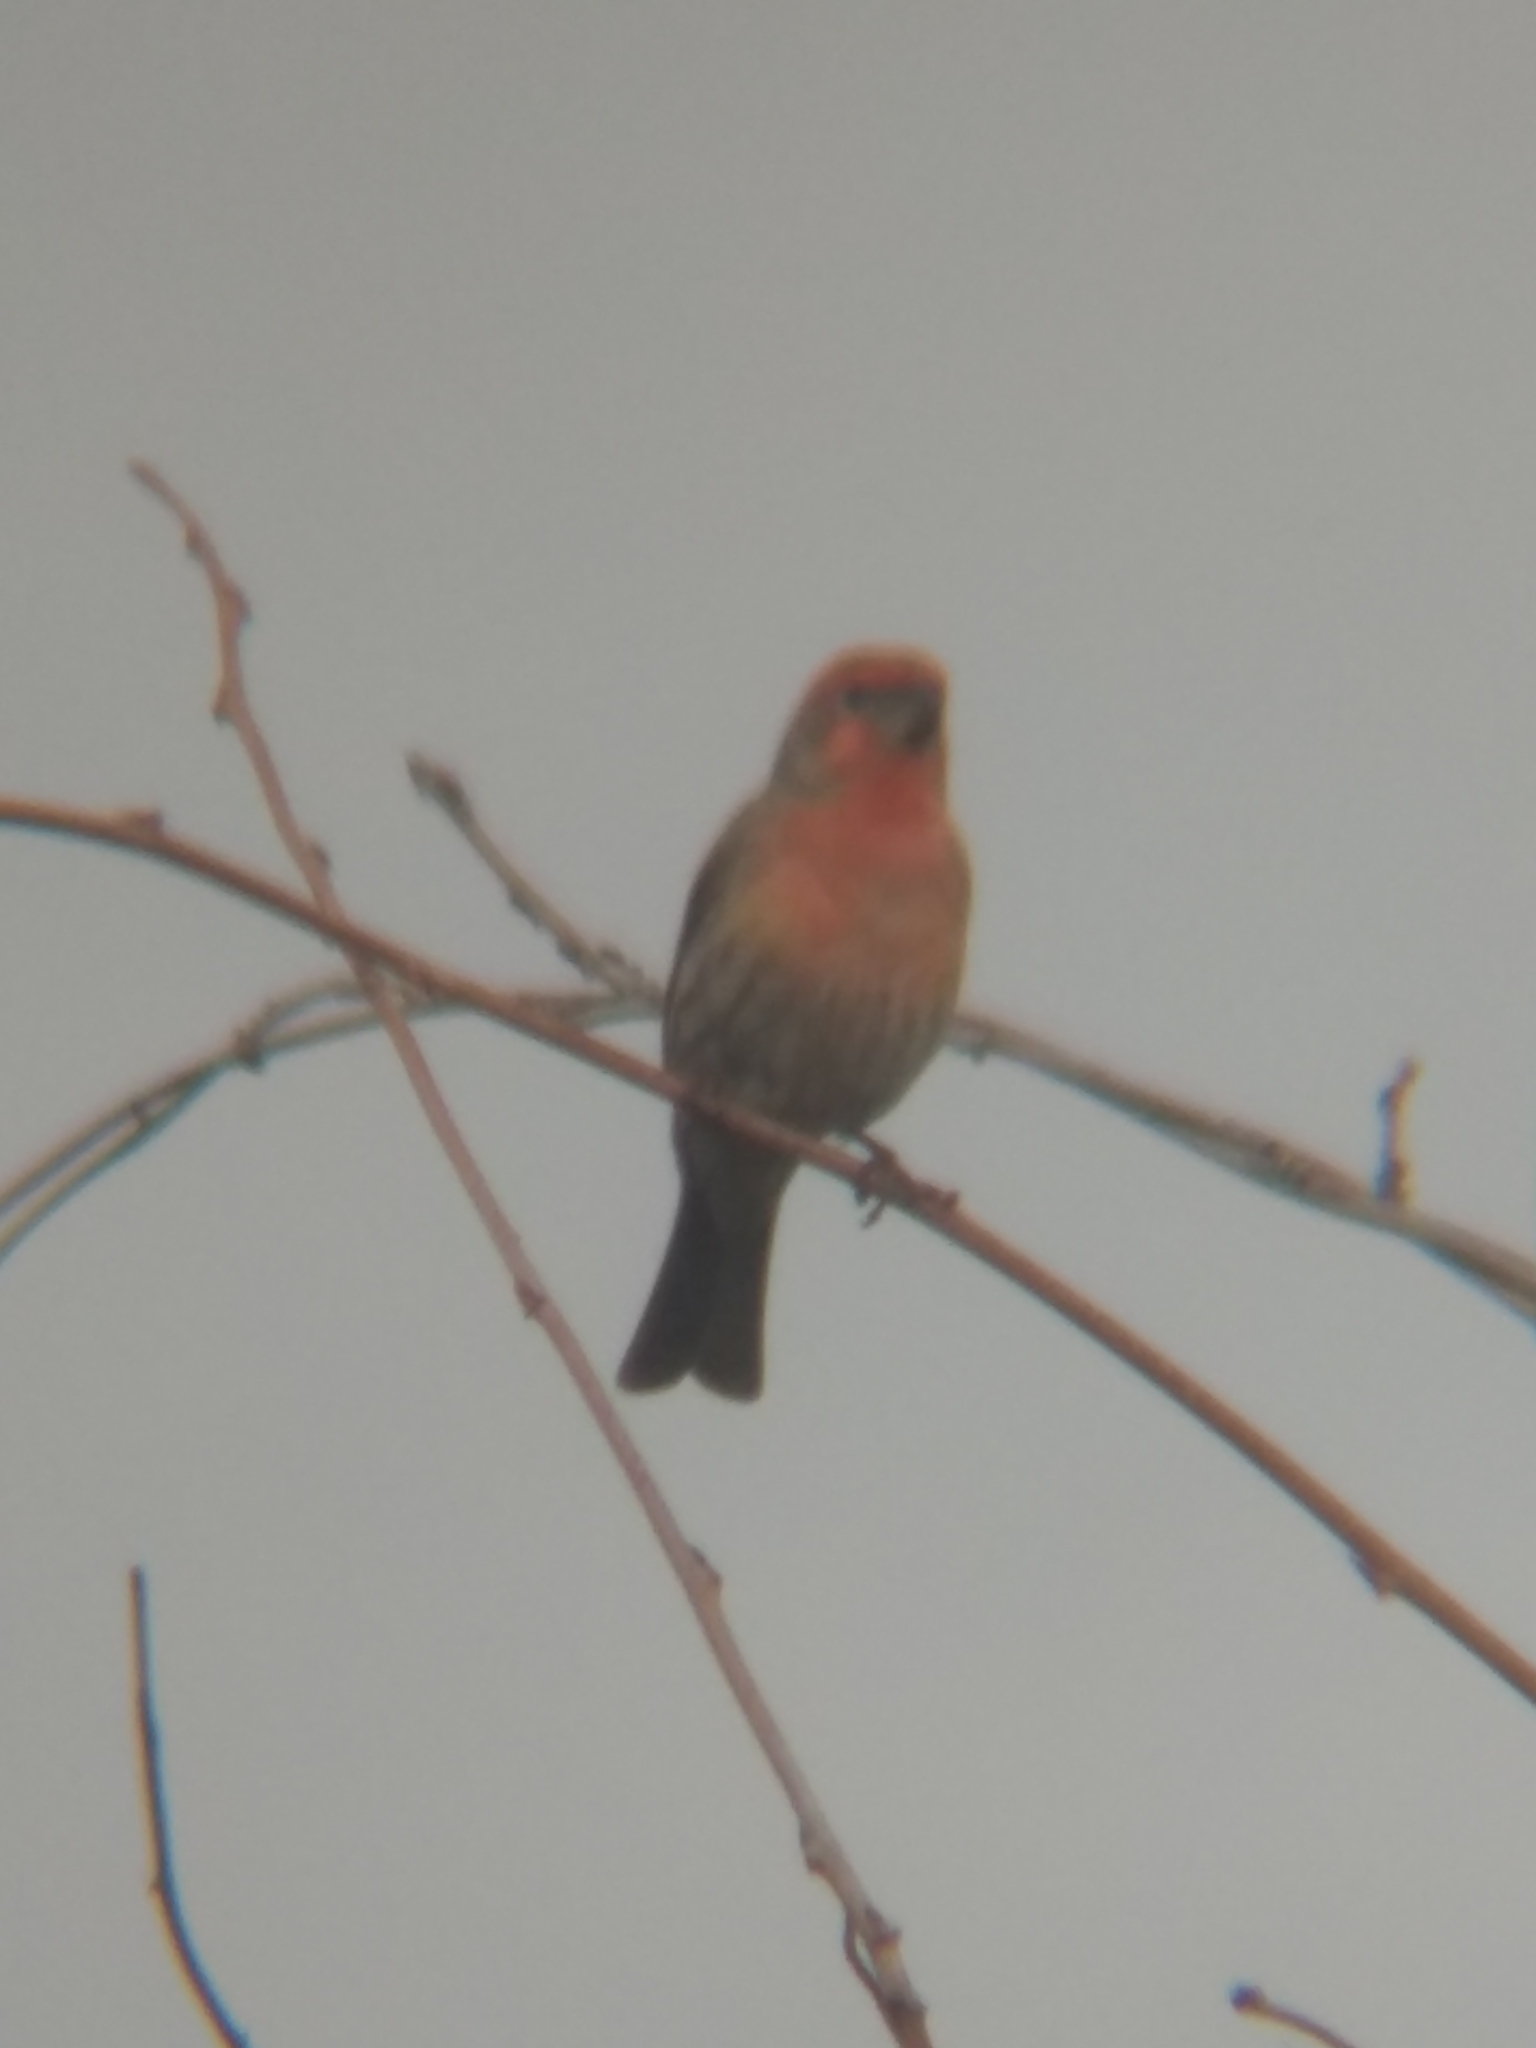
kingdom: Animalia
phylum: Chordata
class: Aves
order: Passeriformes
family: Fringillidae
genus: Haemorhous
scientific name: Haemorhous mexicanus
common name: House finch
